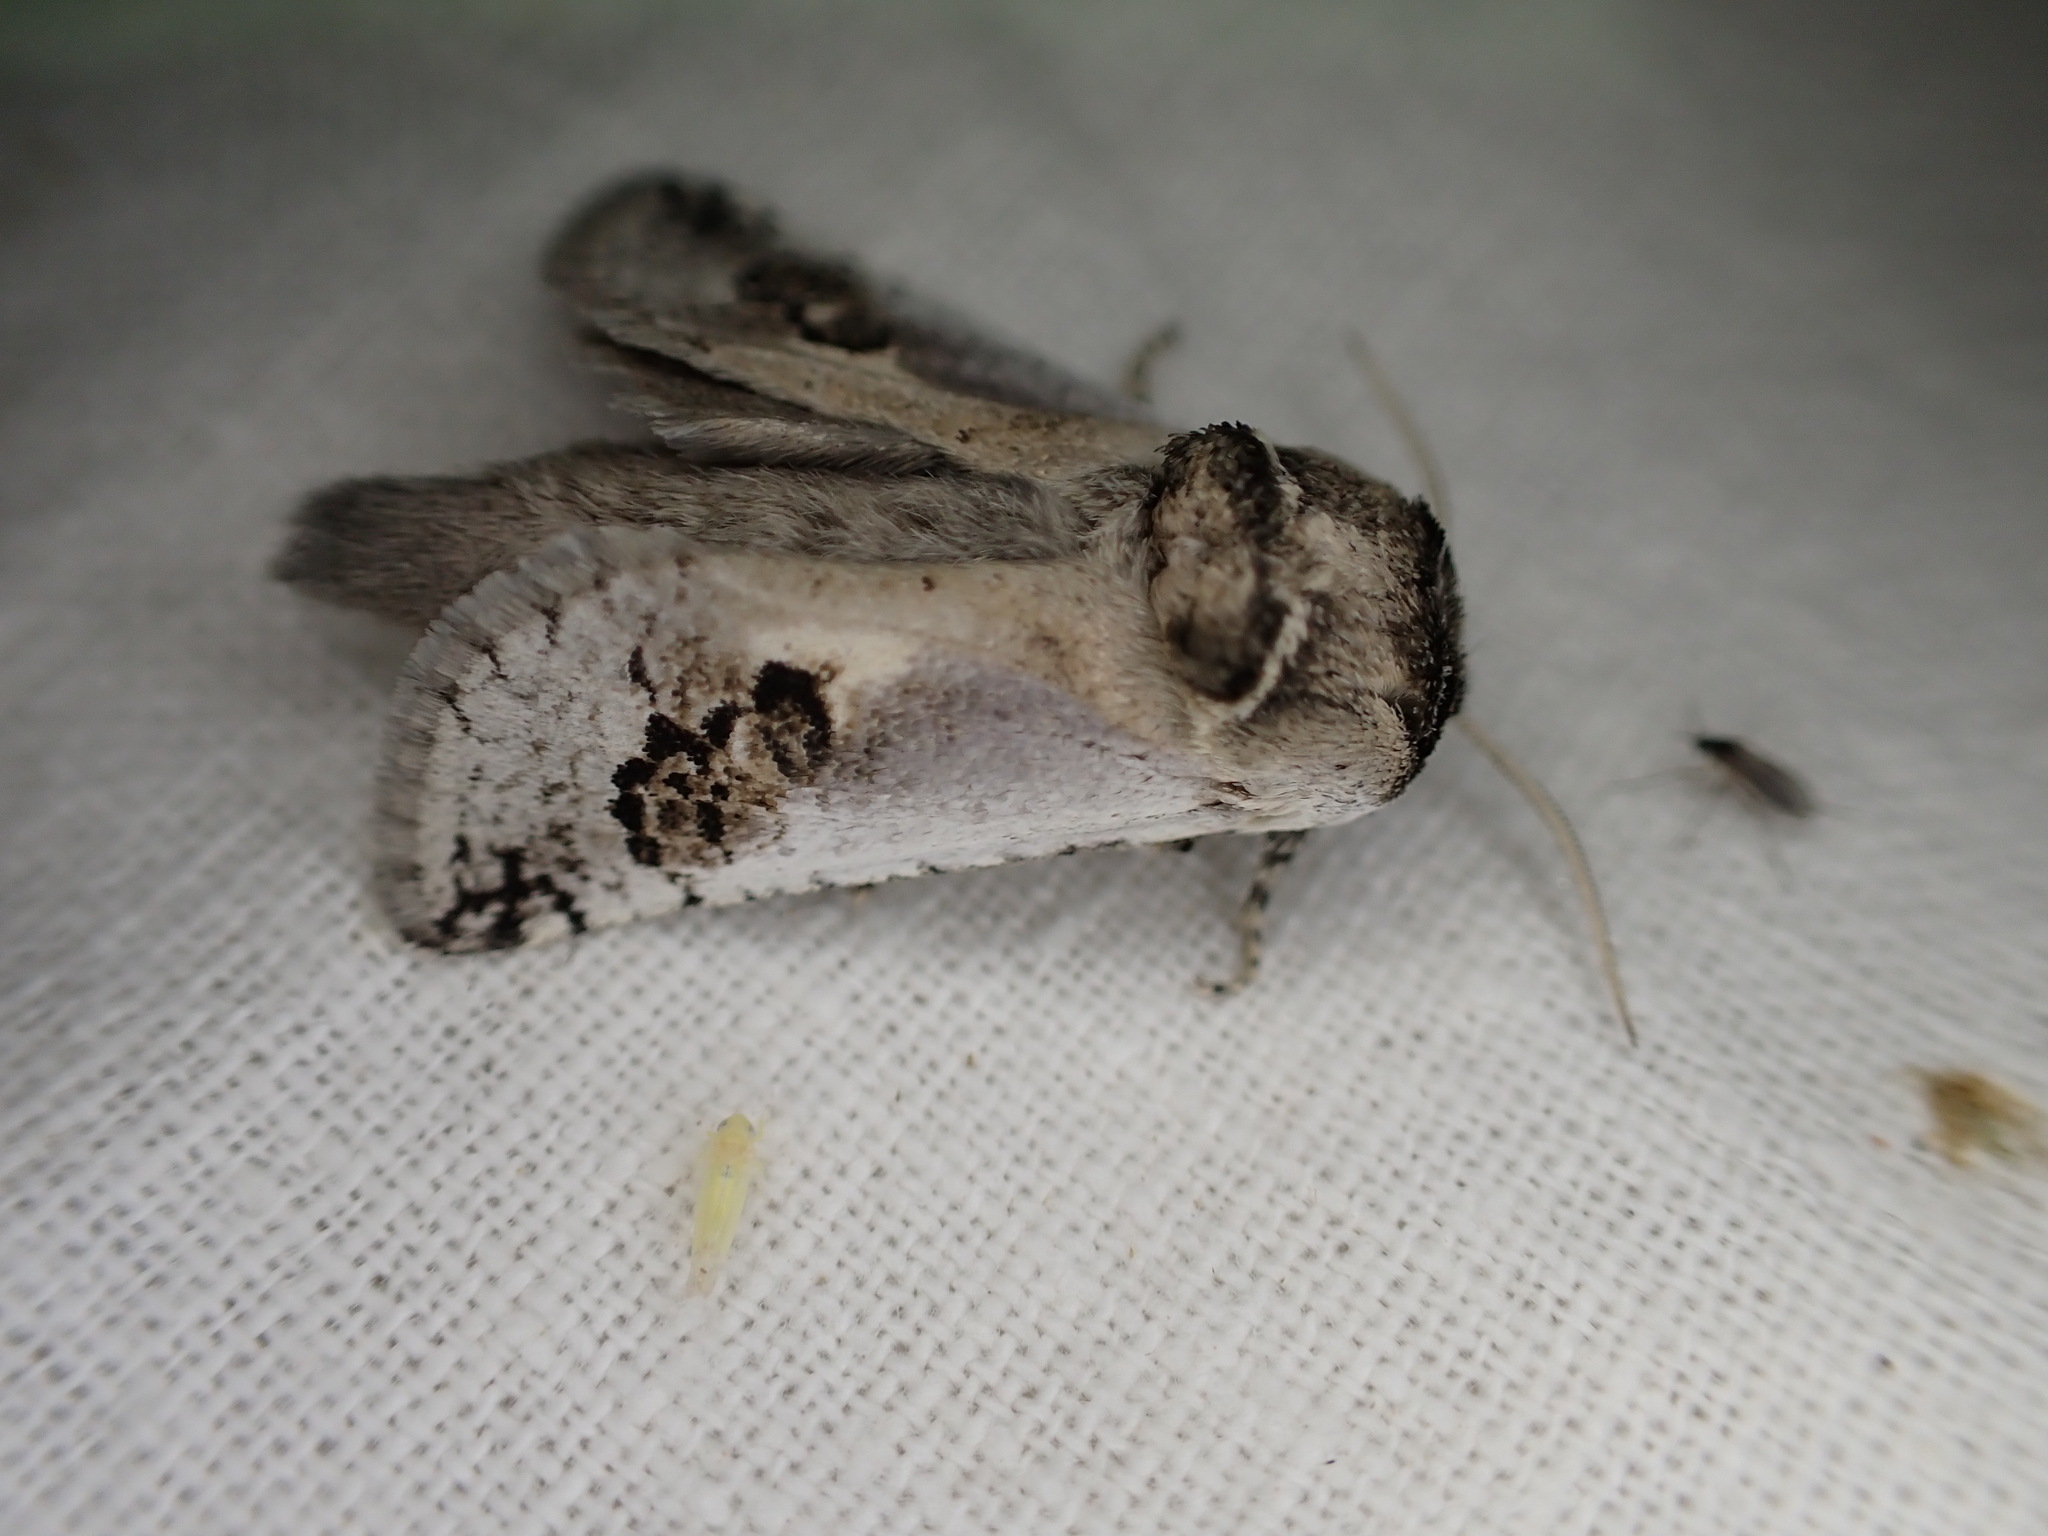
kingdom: Animalia
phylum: Arthropoda
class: Insecta
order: Lepidoptera
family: Cossidae
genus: Parahypopta
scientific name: Parahypopta caestrum
